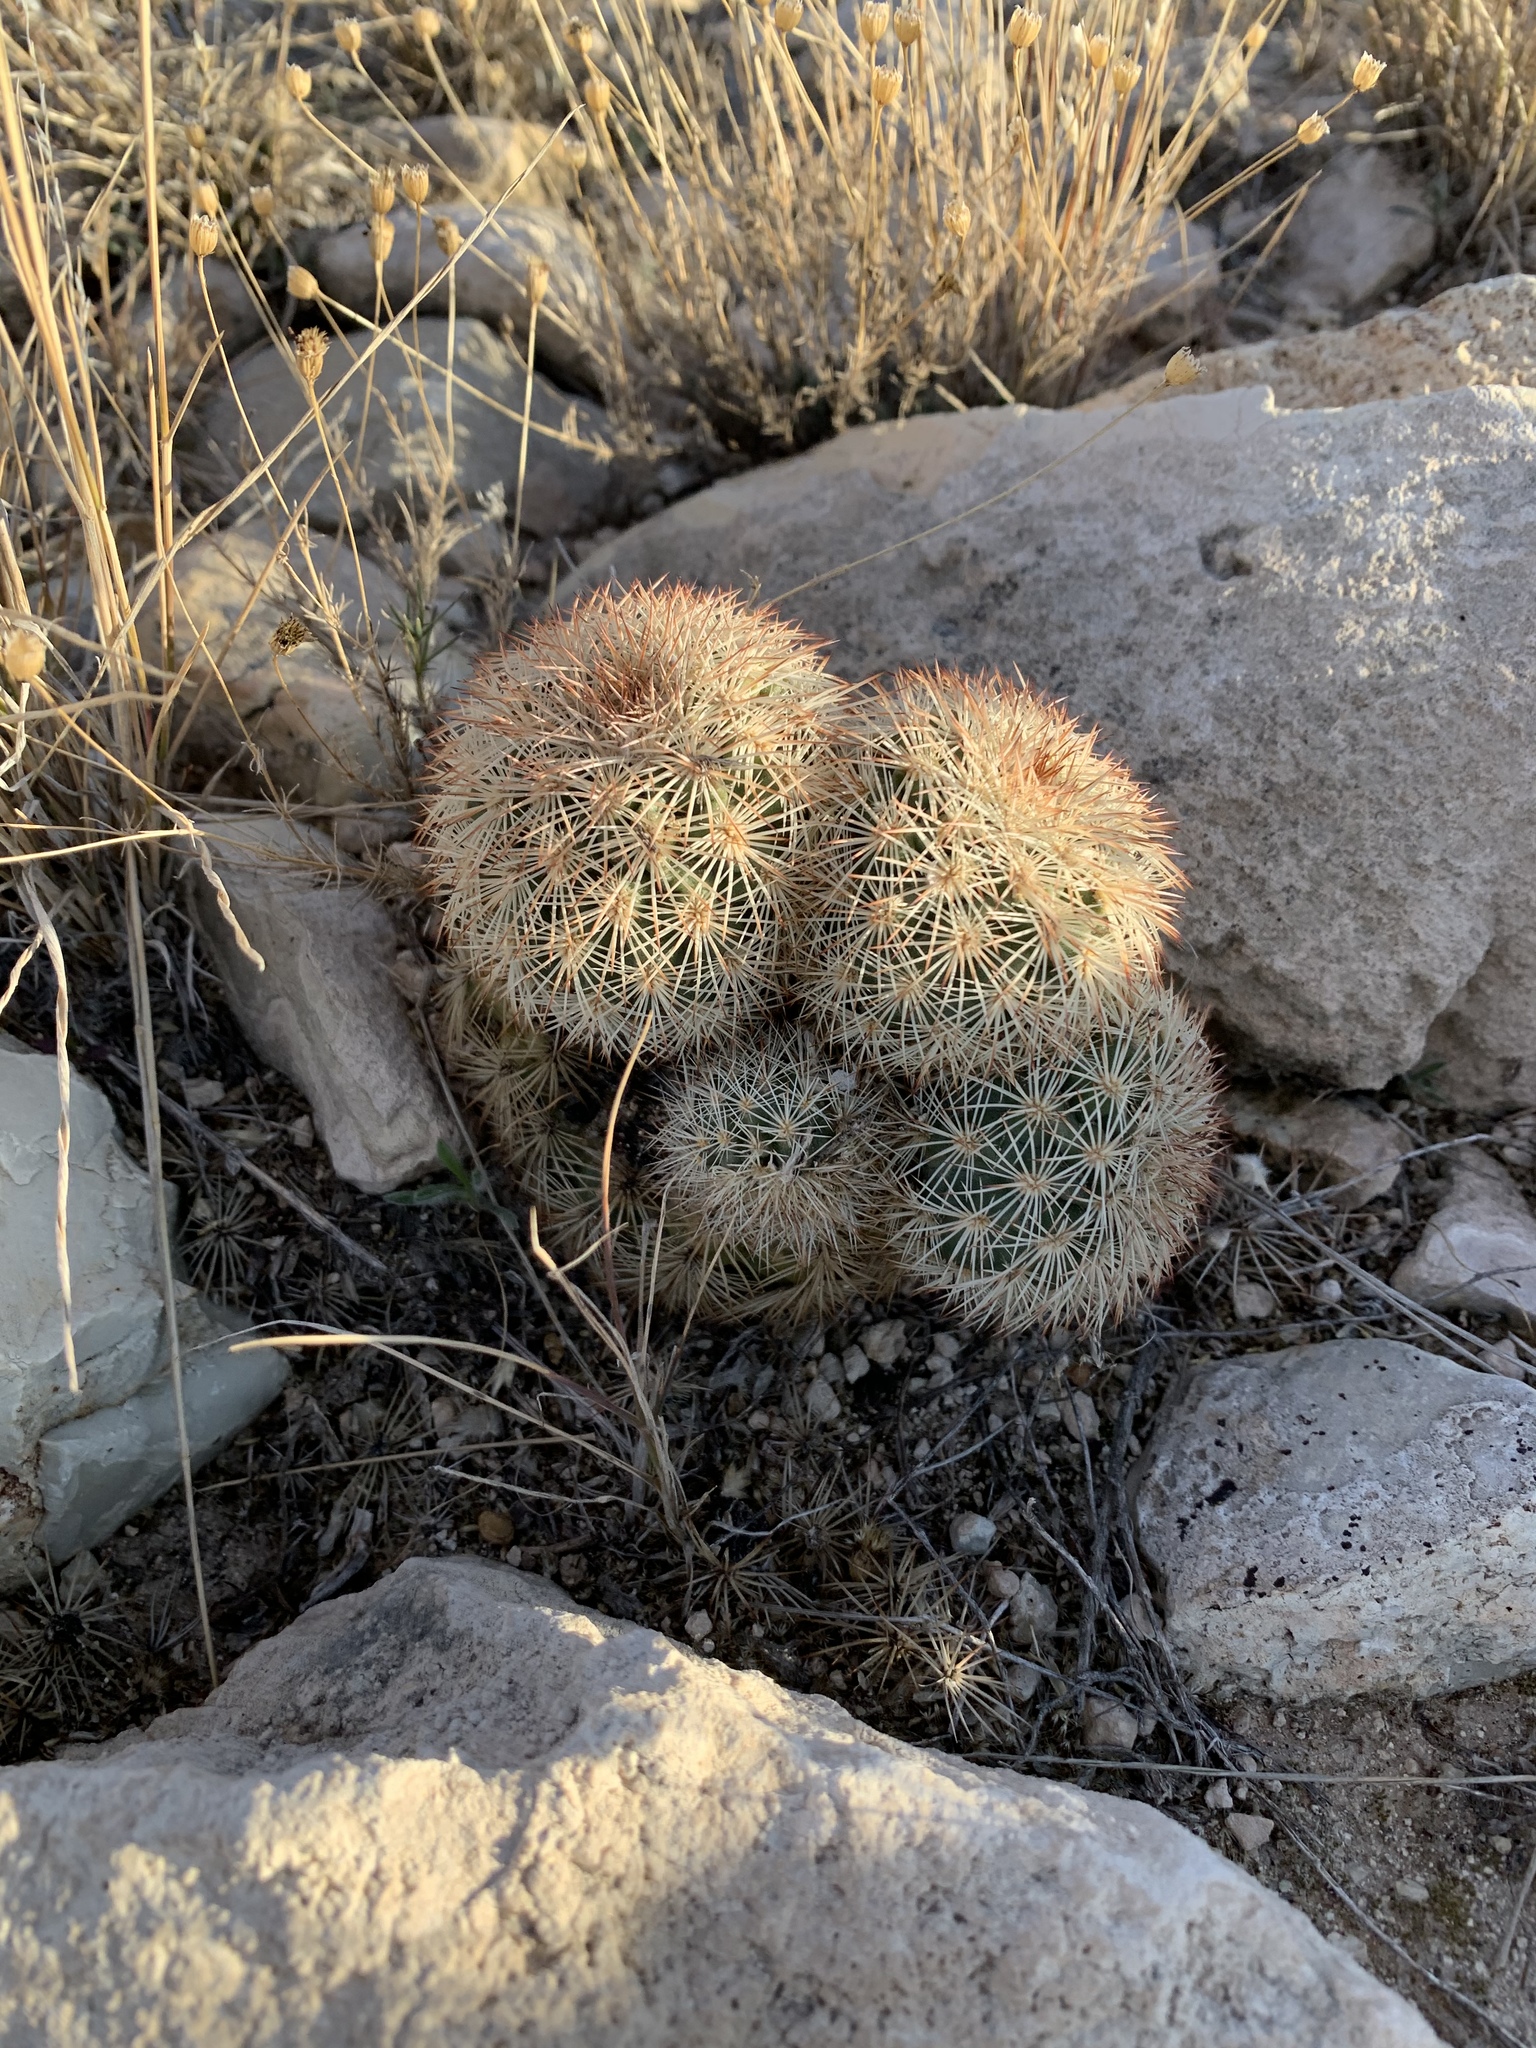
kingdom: Plantae
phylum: Tracheophyta
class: Magnoliopsida
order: Caryophyllales
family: Cactaceae
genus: Echinocereus
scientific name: Echinocereus dasyacanthus
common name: Spiny hedgehog cactus
